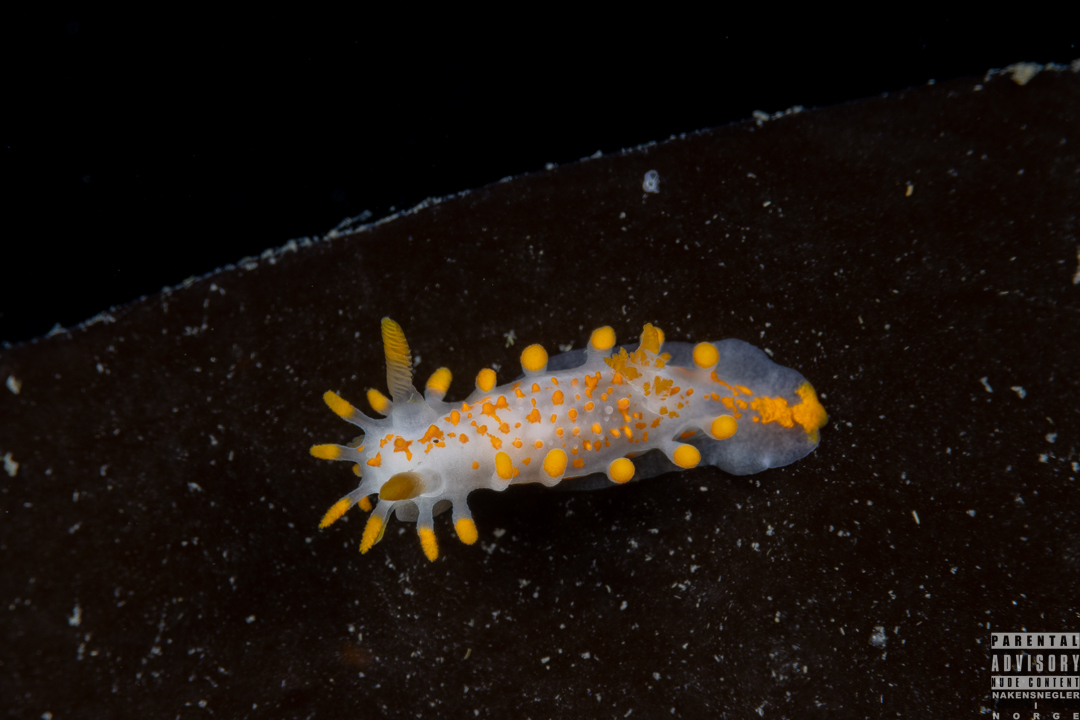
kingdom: Animalia
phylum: Mollusca
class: Gastropoda
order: Nudibranchia
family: Polyceridae
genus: Limacia
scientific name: Limacia clavigera
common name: Orange-clubbed sea slug
